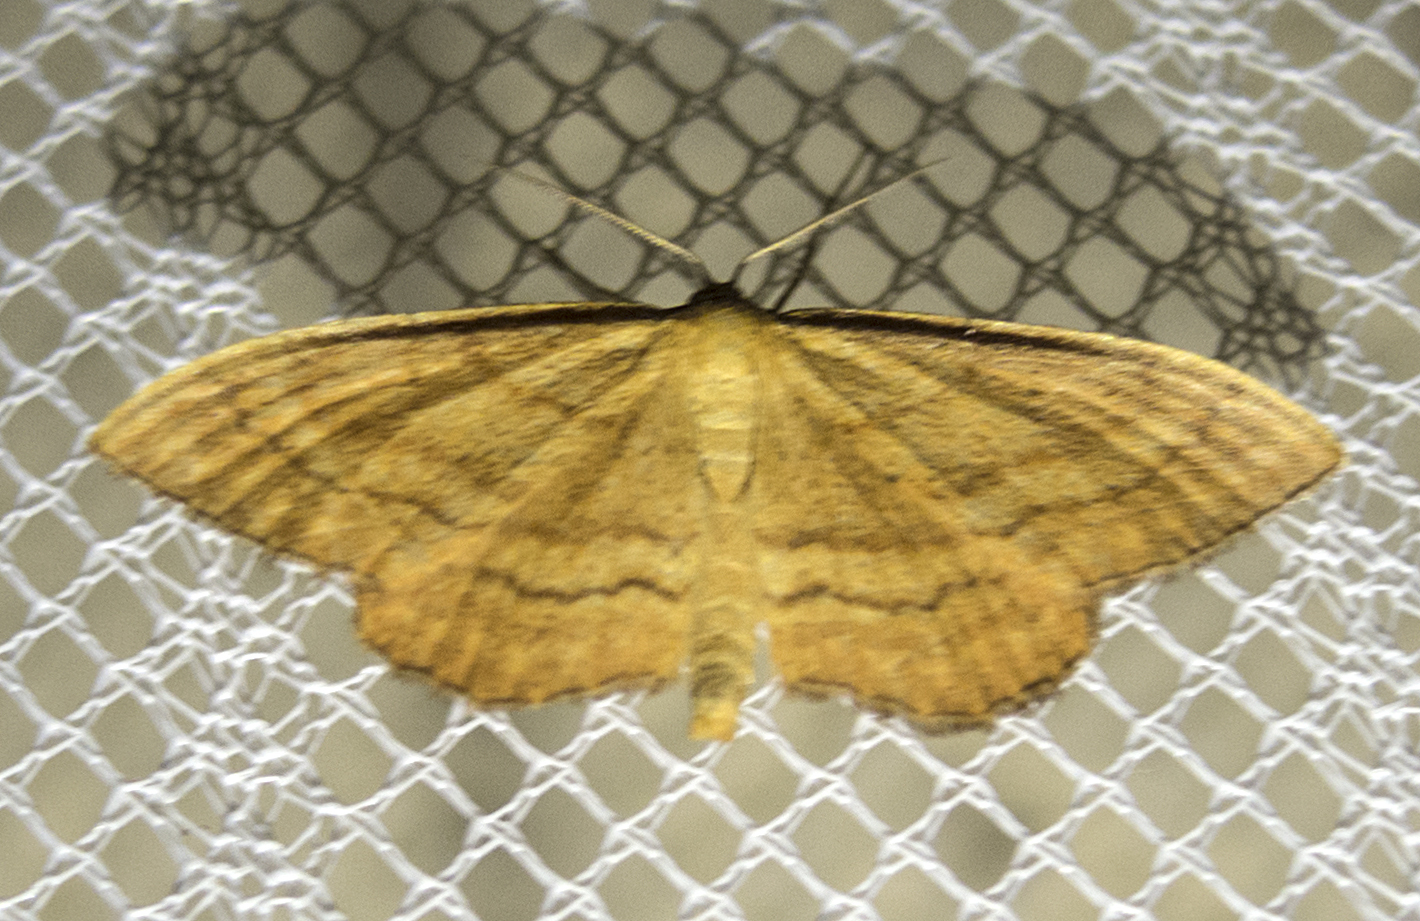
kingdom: Animalia
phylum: Arthropoda
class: Insecta
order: Lepidoptera
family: Geometridae
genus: Idaea
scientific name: Idaea ochrata
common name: Bright wave
